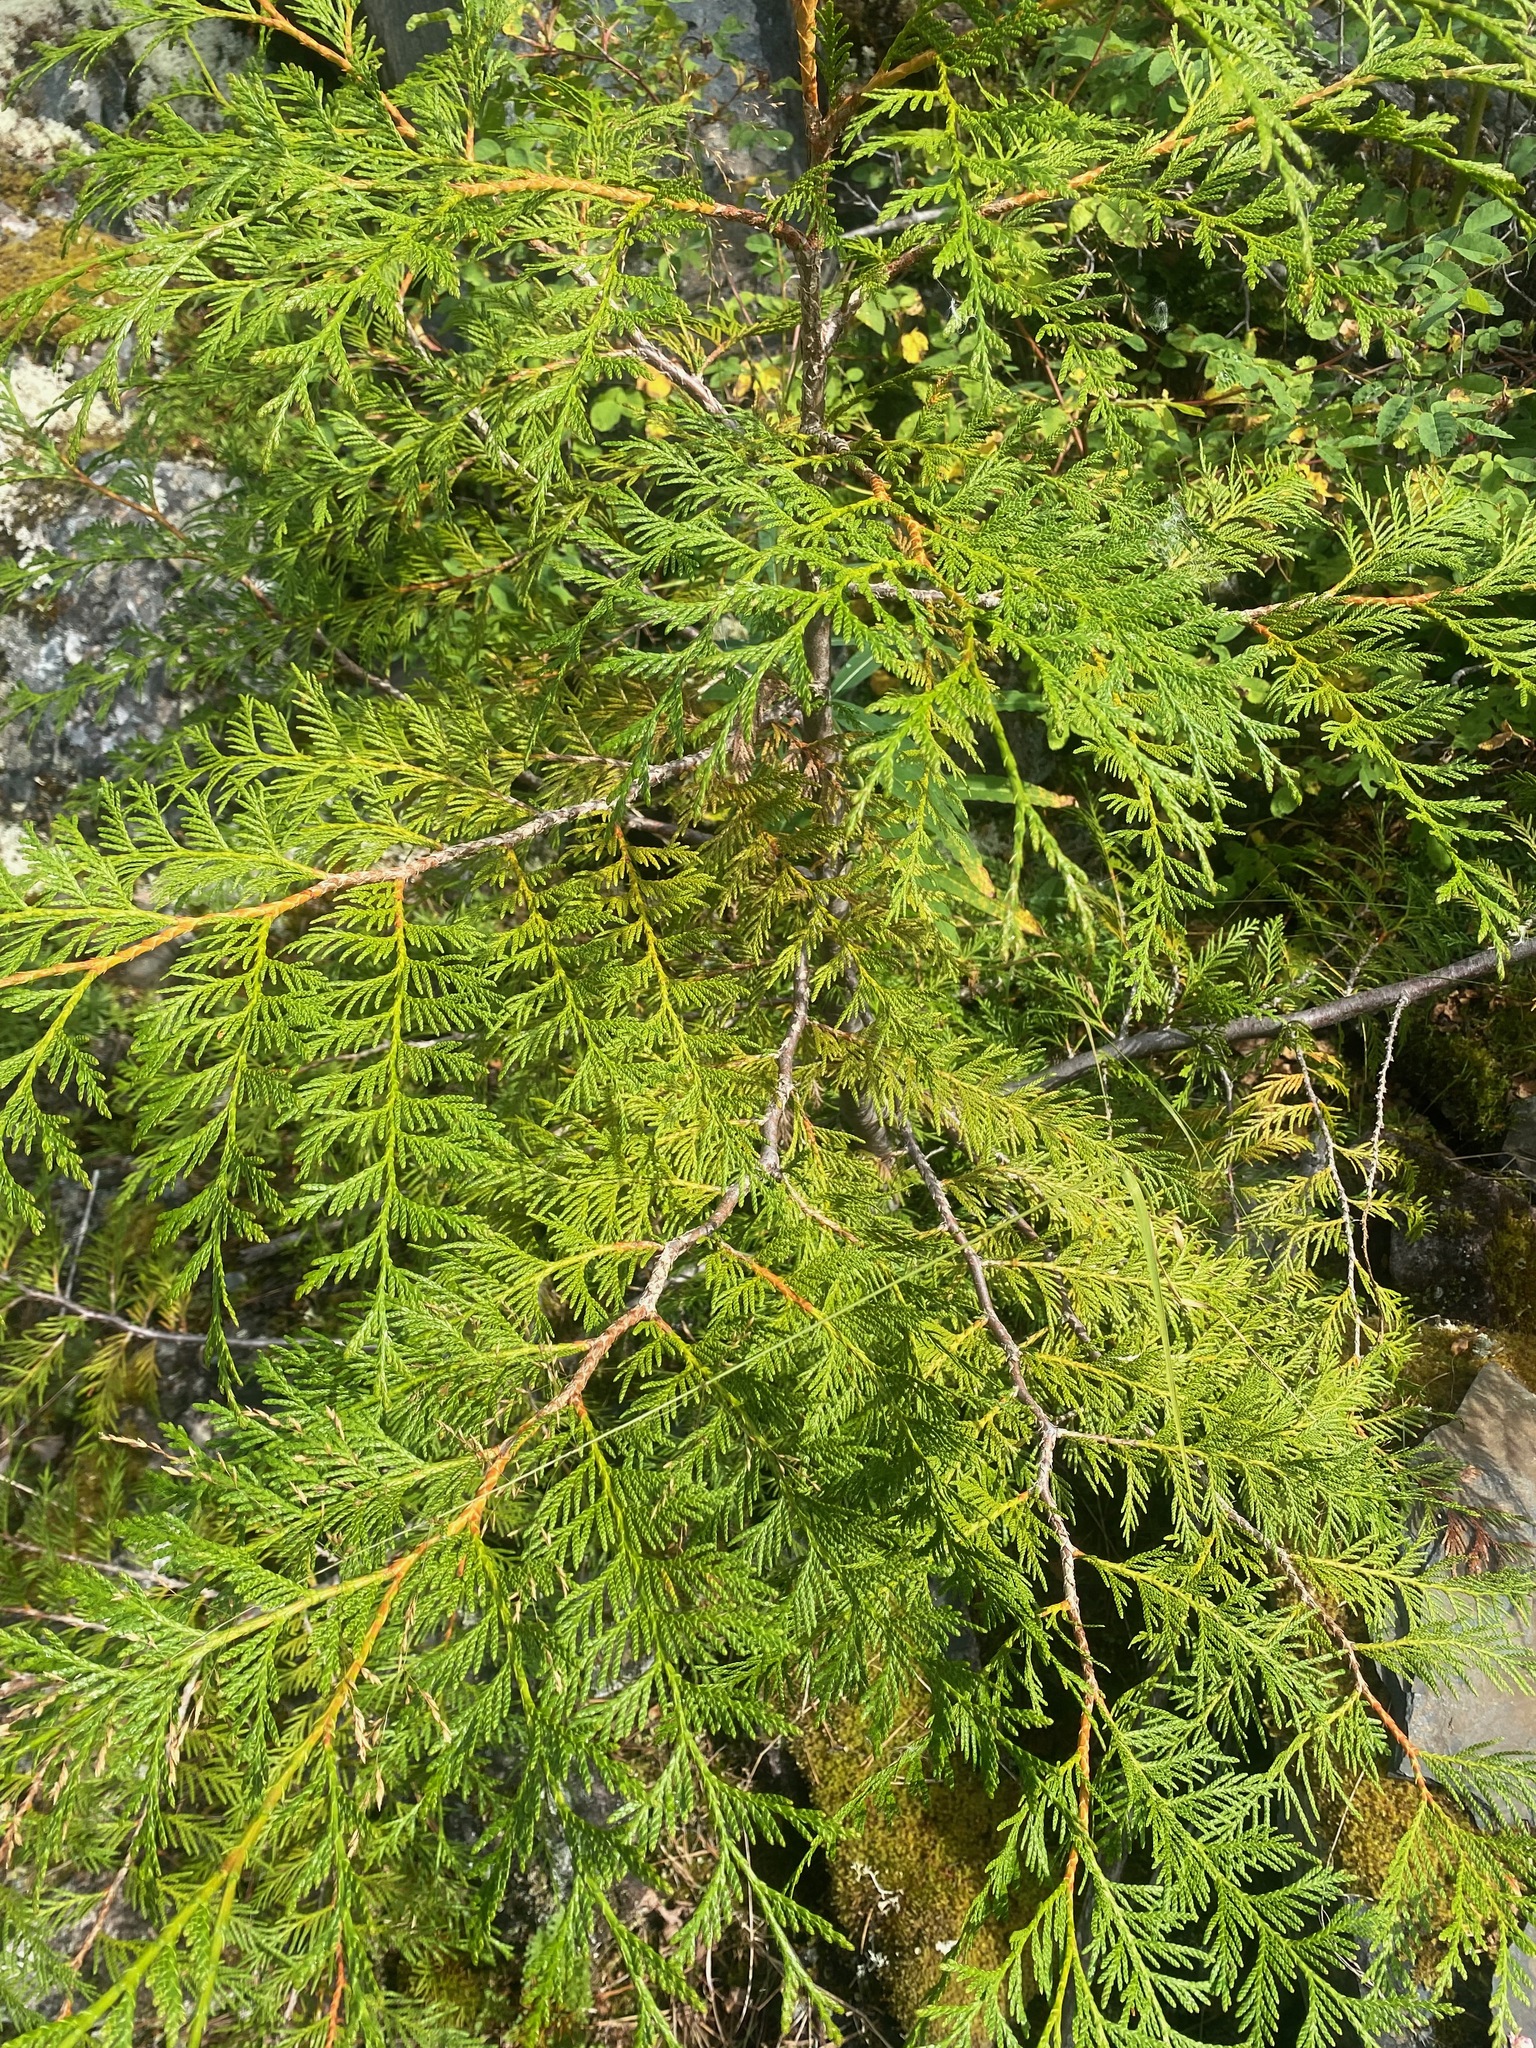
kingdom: Plantae
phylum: Tracheophyta
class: Pinopsida
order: Pinales
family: Cupressaceae
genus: Thuja
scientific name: Thuja plicata
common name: Western red-cedar
